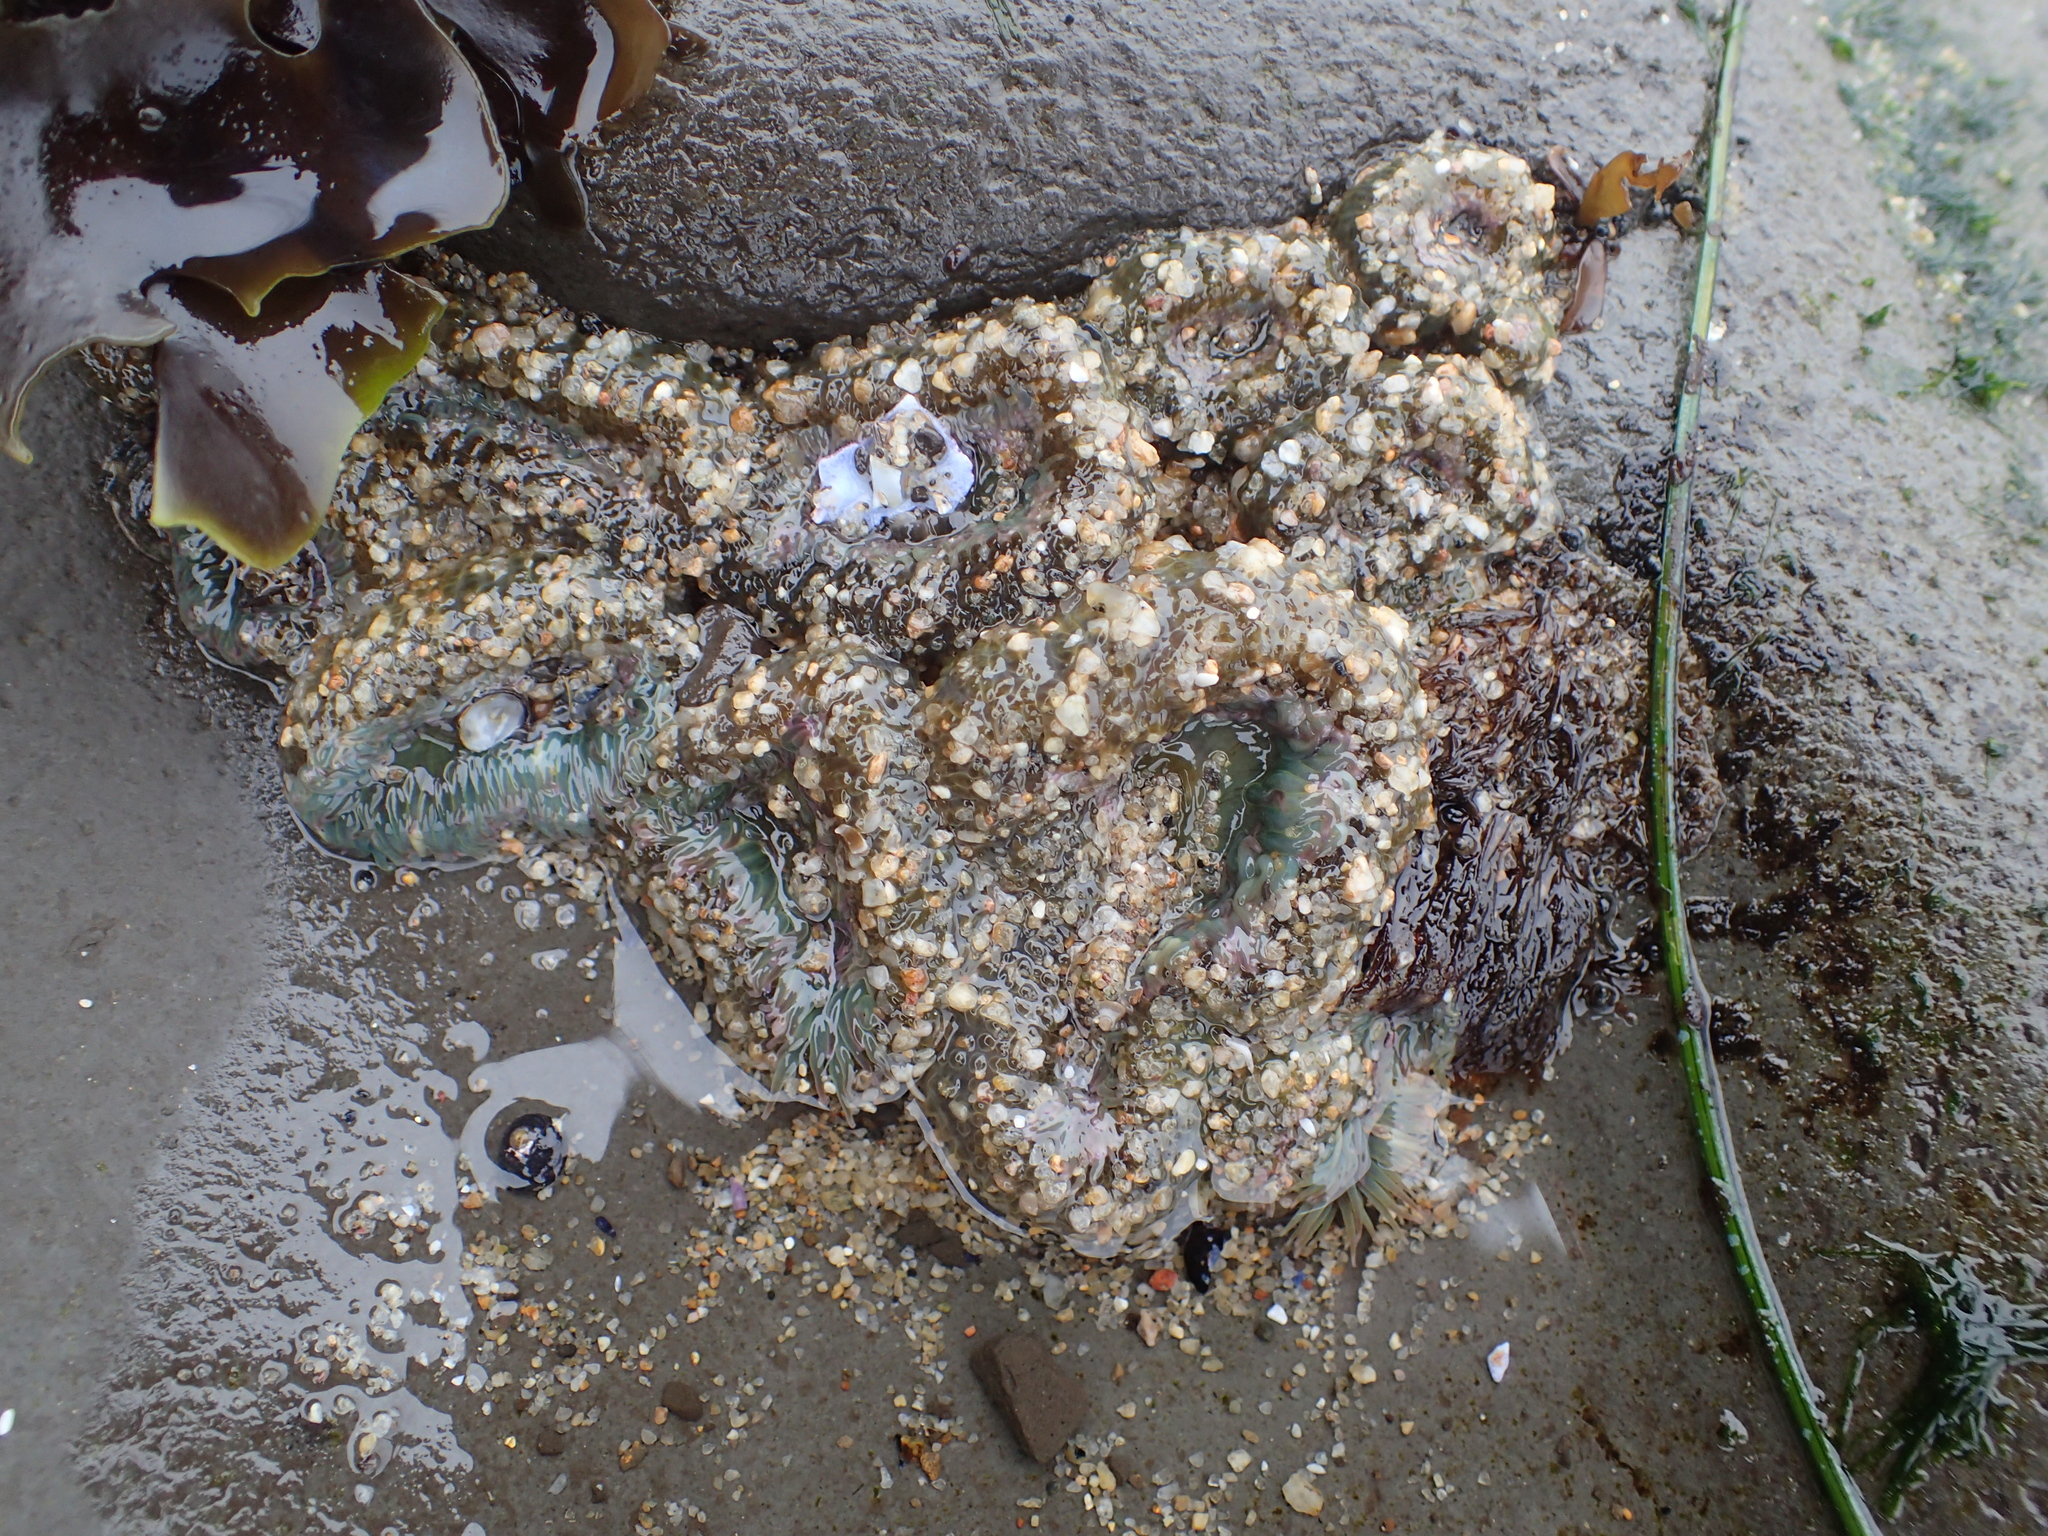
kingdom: Animalia
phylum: Cnidaria
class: Anthozoa
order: Actiniaria
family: Actiniidae
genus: Anthopleura
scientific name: Anthopleura elegantissima
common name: Clonal anemone
